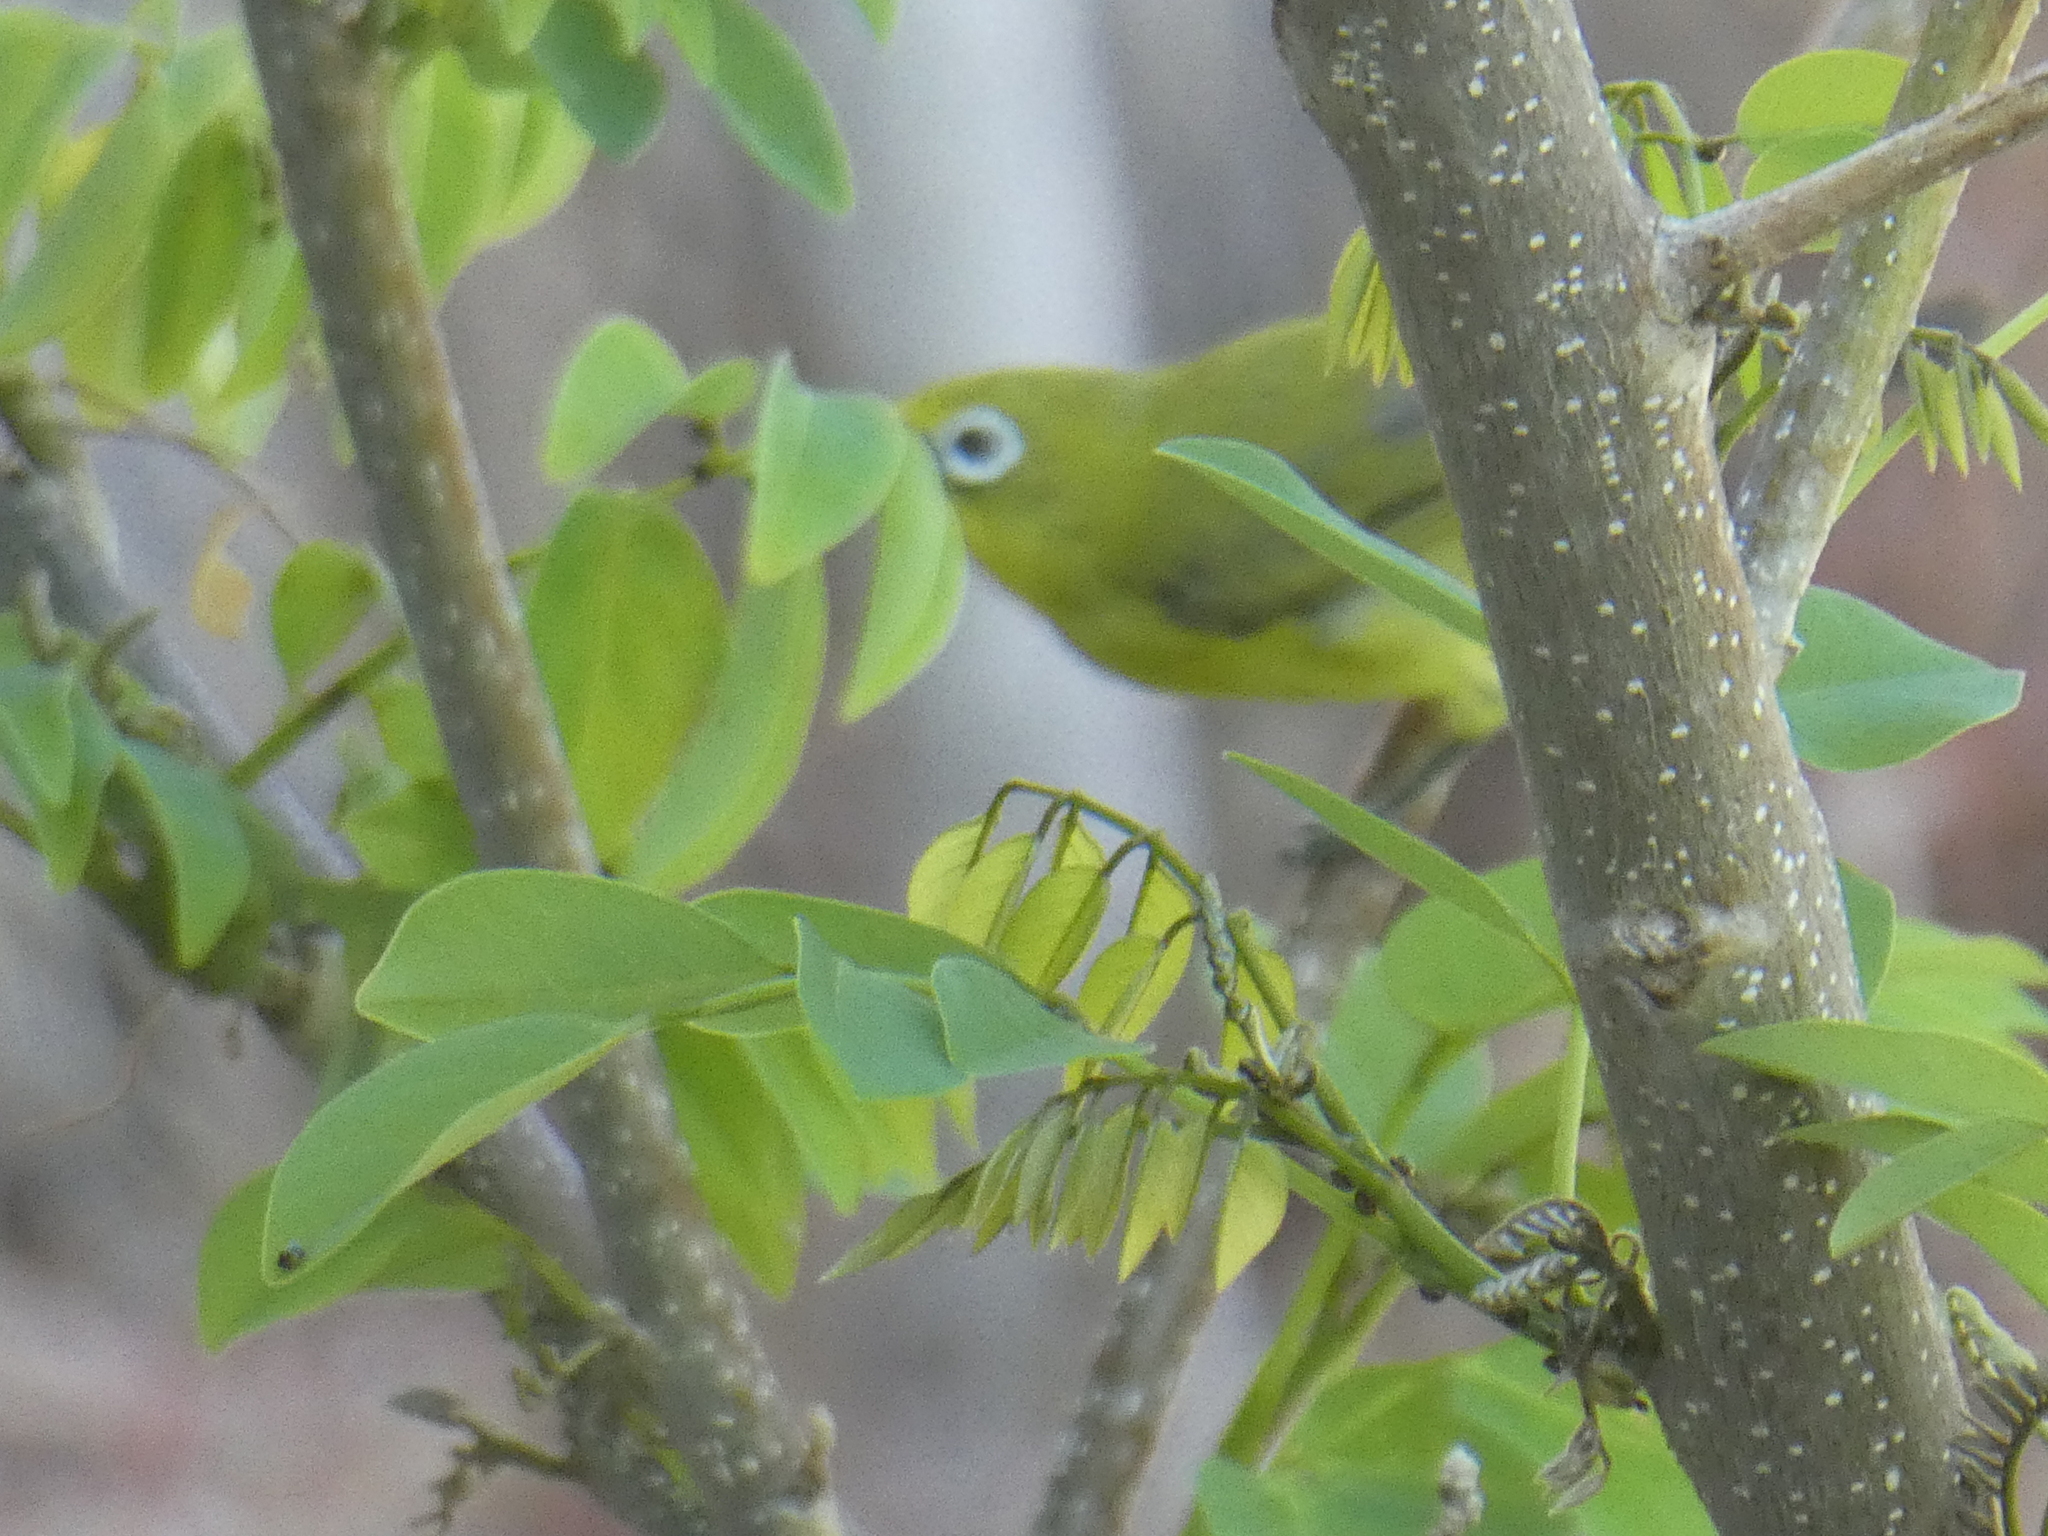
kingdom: Animalia
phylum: Chordata
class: Aves
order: Passeriformes
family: Zosteropidae
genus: Zosterops
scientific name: Zosterops chloris
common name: Lemon-bellied white-eye
